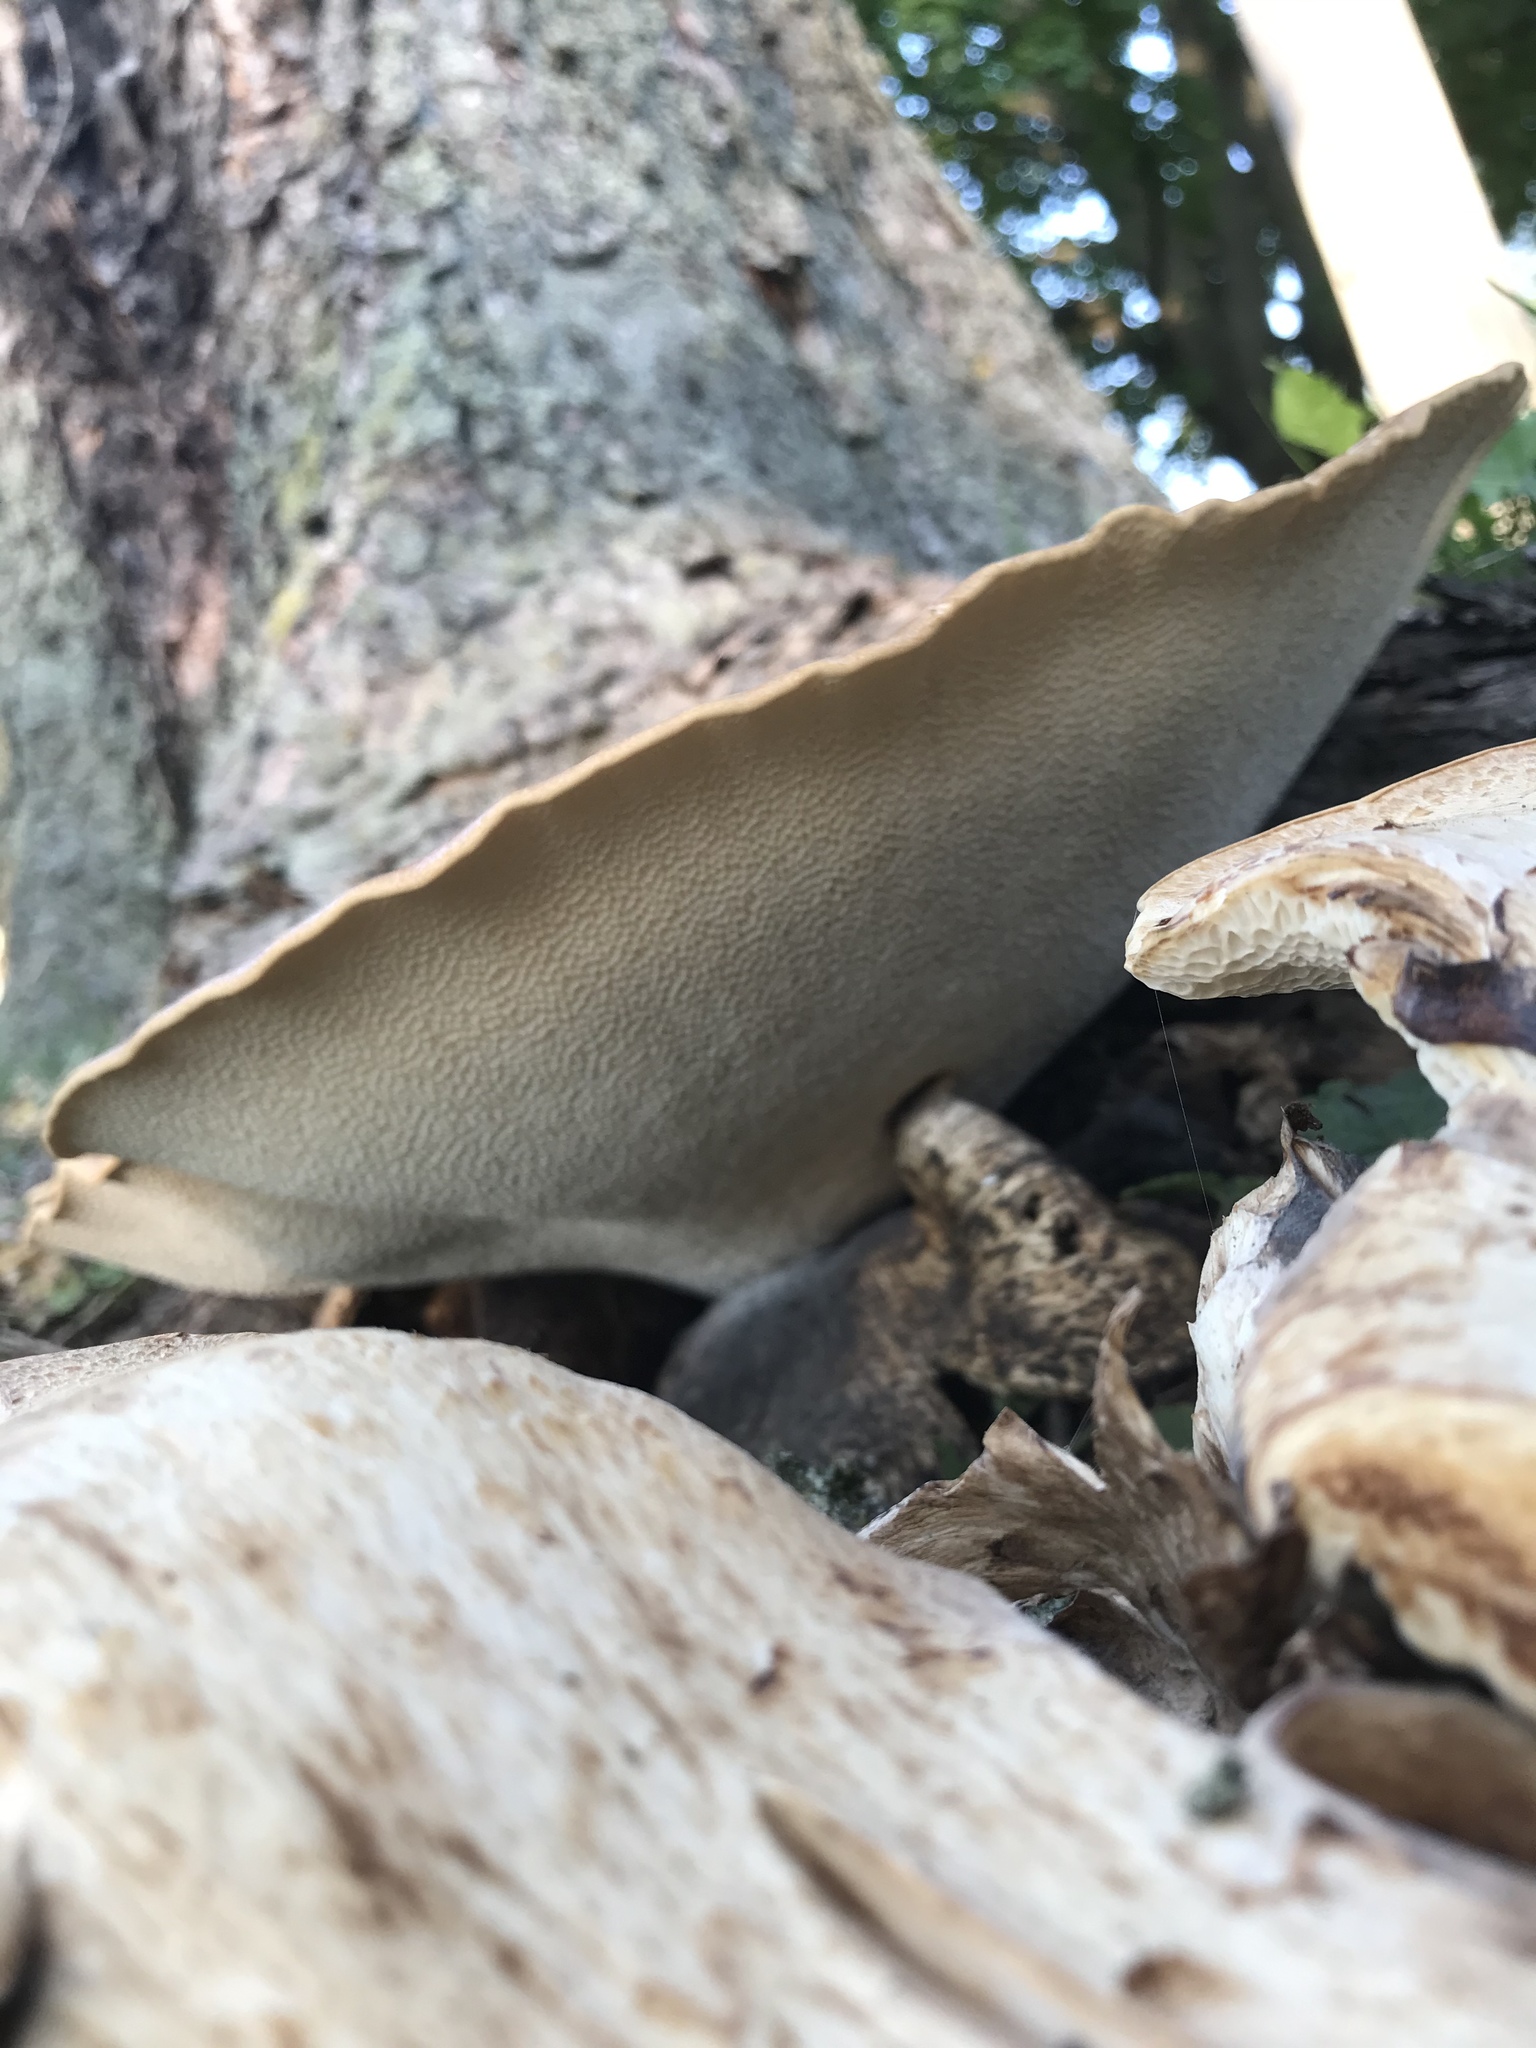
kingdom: Fungi
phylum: Basidiomycota
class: Agaricomycetes
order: Polyporales
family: Polyporaceae
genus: Cerioporus
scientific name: Cerioporus squamosus
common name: Dryad's saddle
